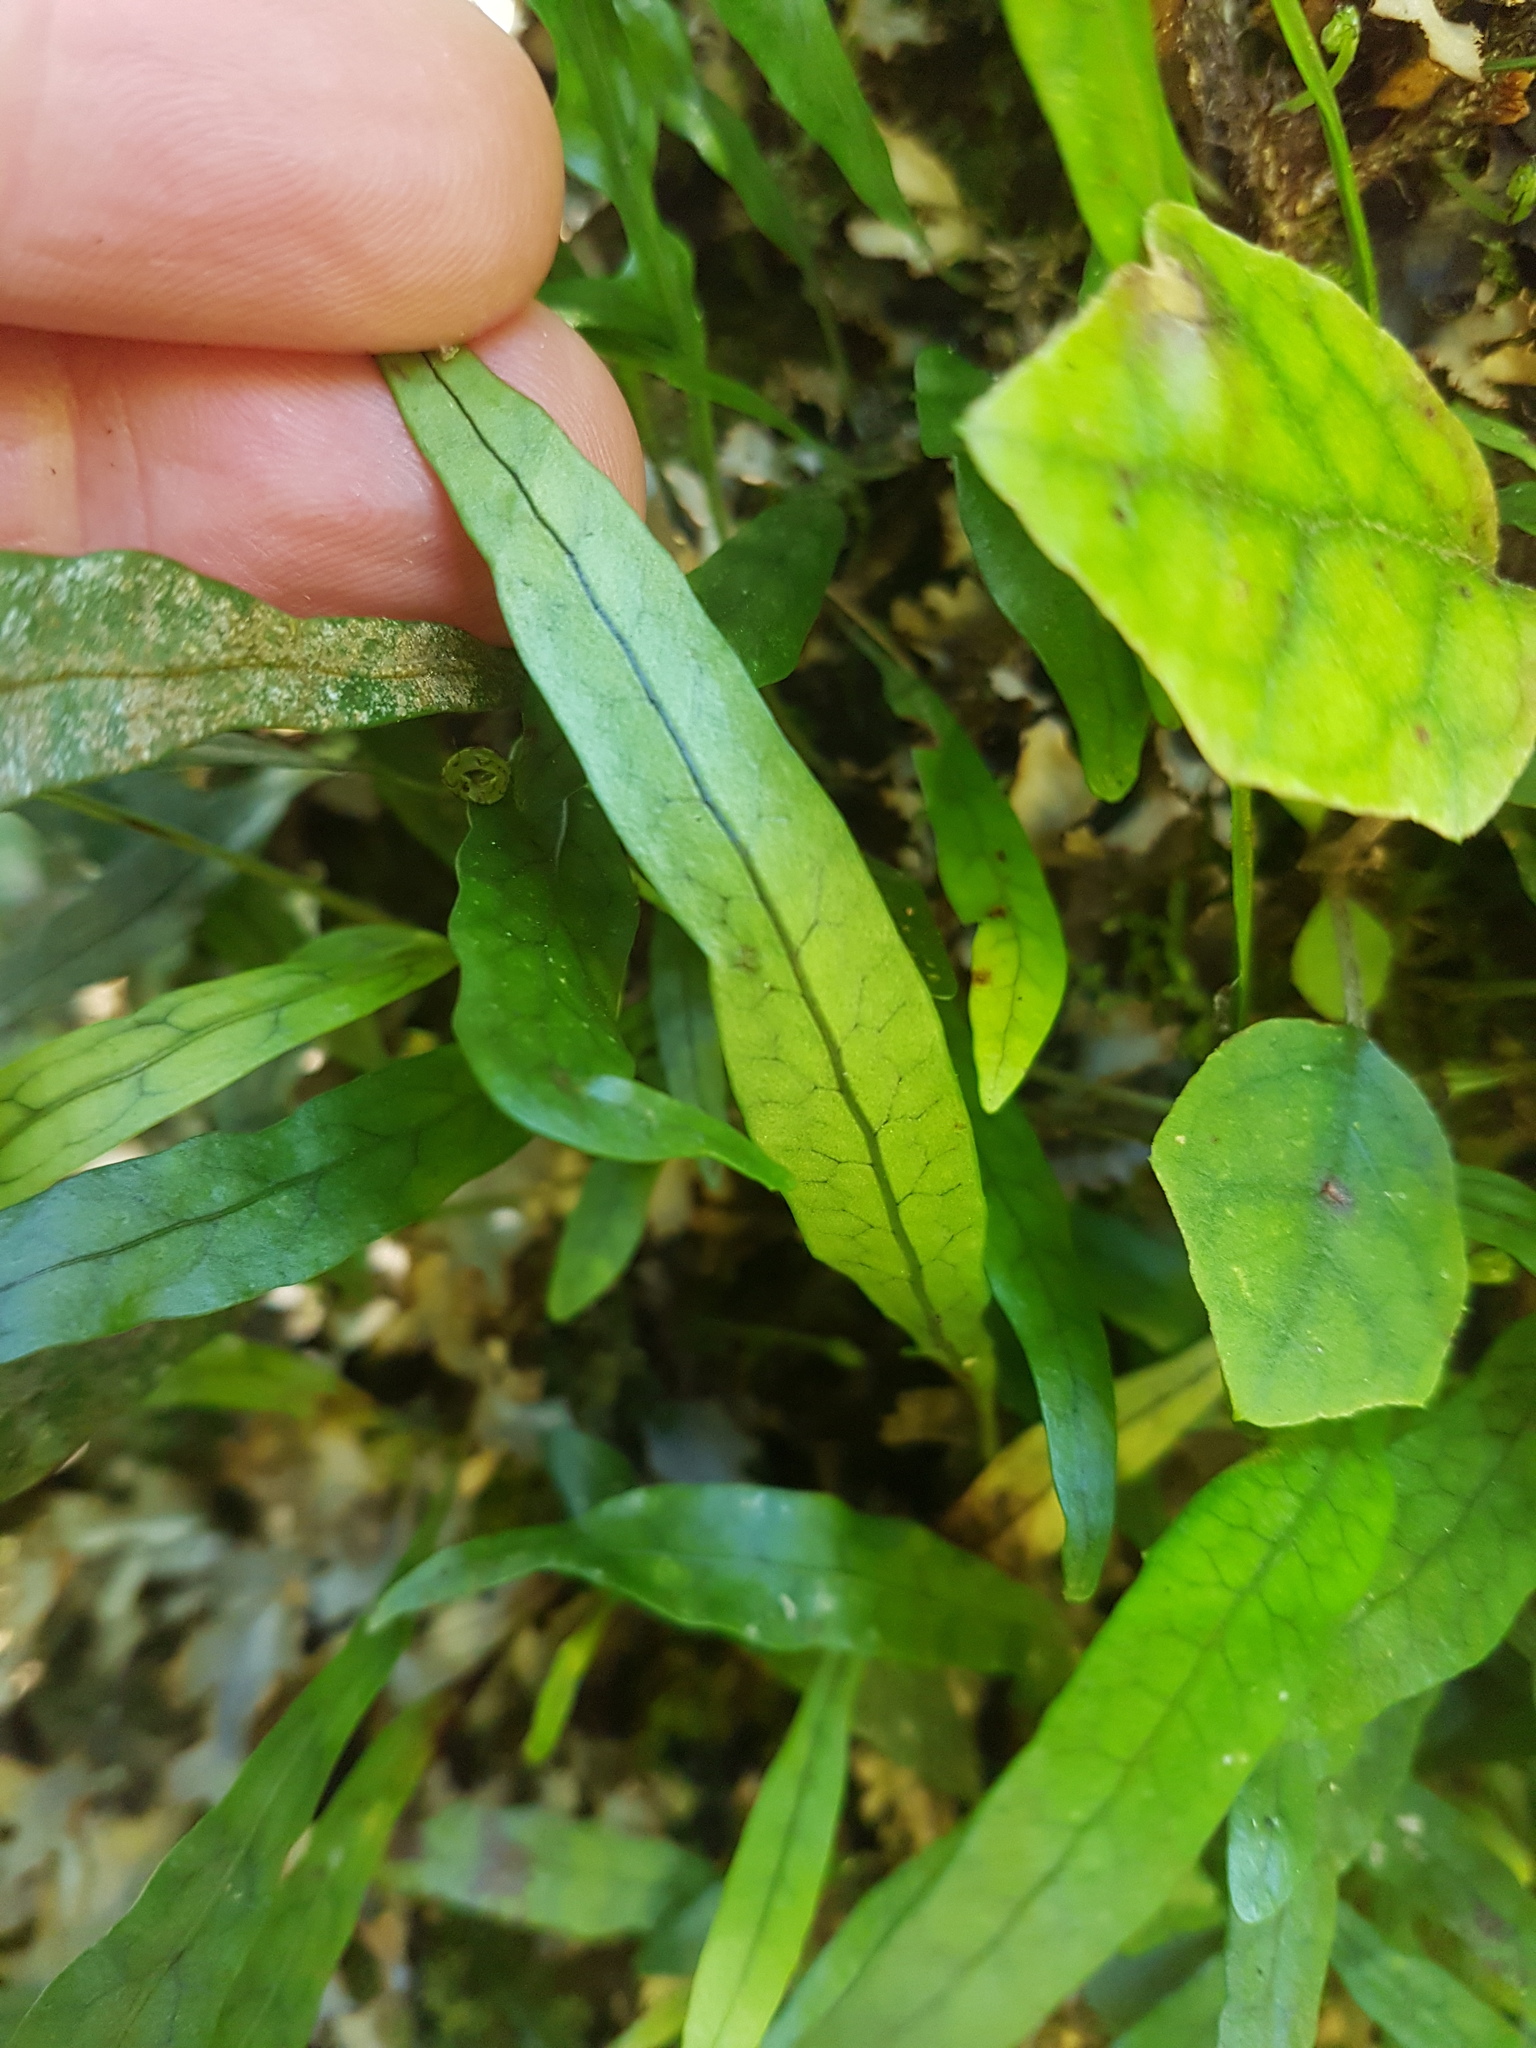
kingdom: Plantae
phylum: Tracheophyta
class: Polypodiopsida
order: Polypodiales
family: Polypodiaceae
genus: Lecanopteris
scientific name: Lecanopteris scandens
